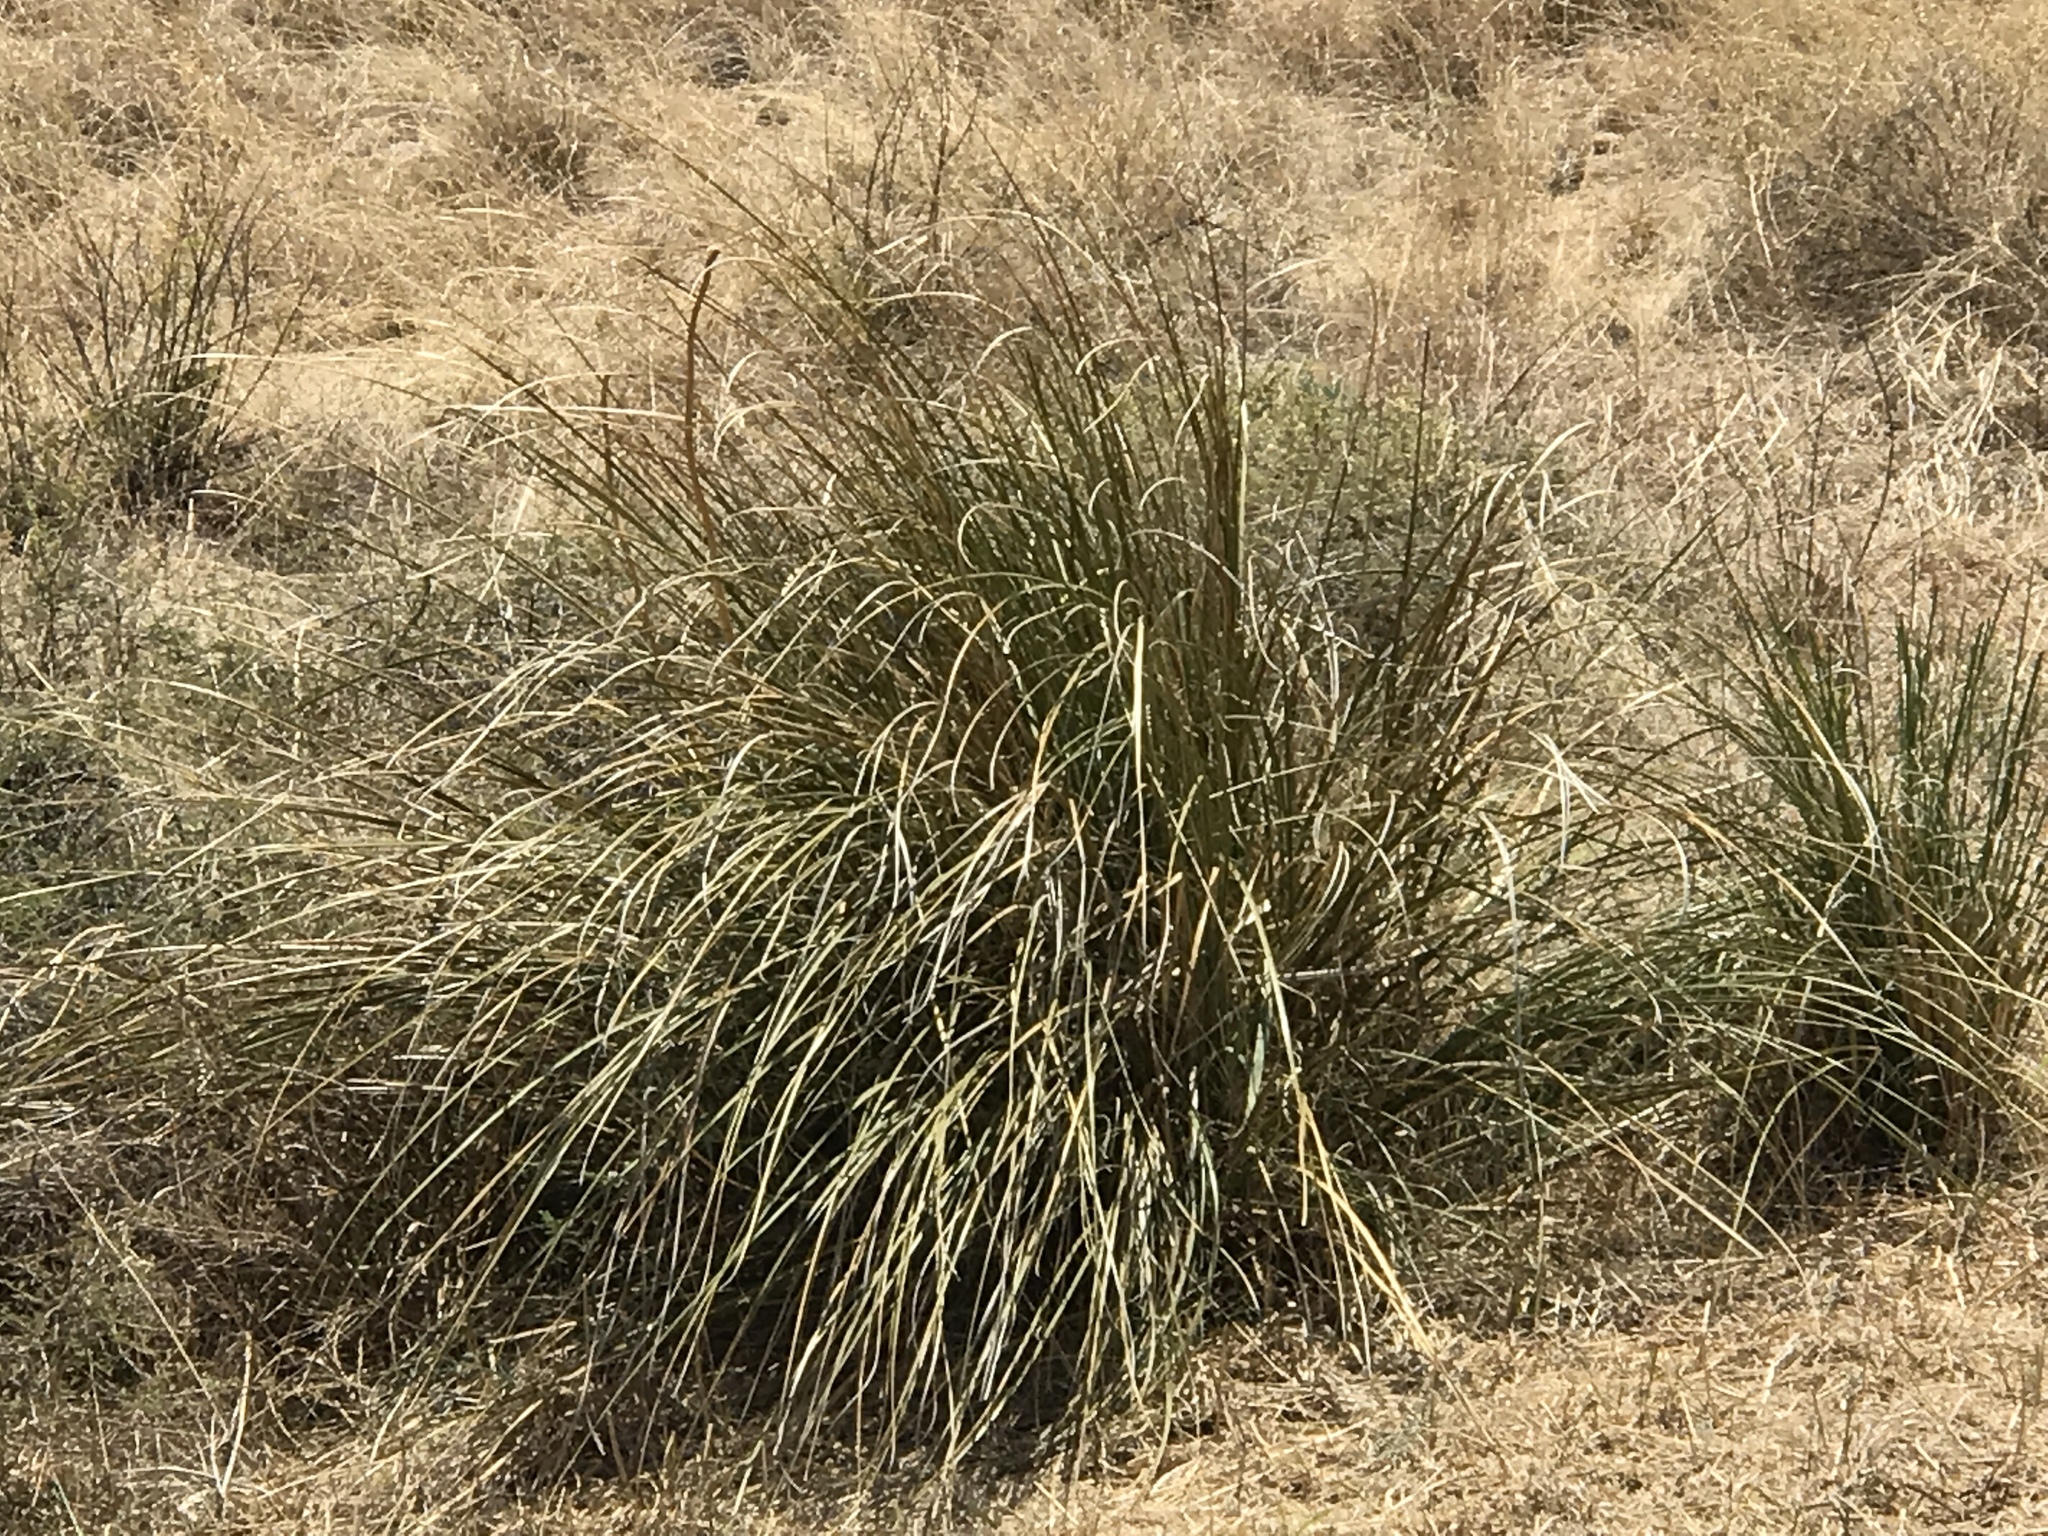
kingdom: Plantae
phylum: Tracheophyta
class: Liliopsida
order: Asparagales
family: Asparagaceae
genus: Nolina
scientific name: Nolina microcarpa
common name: Bear-grass
